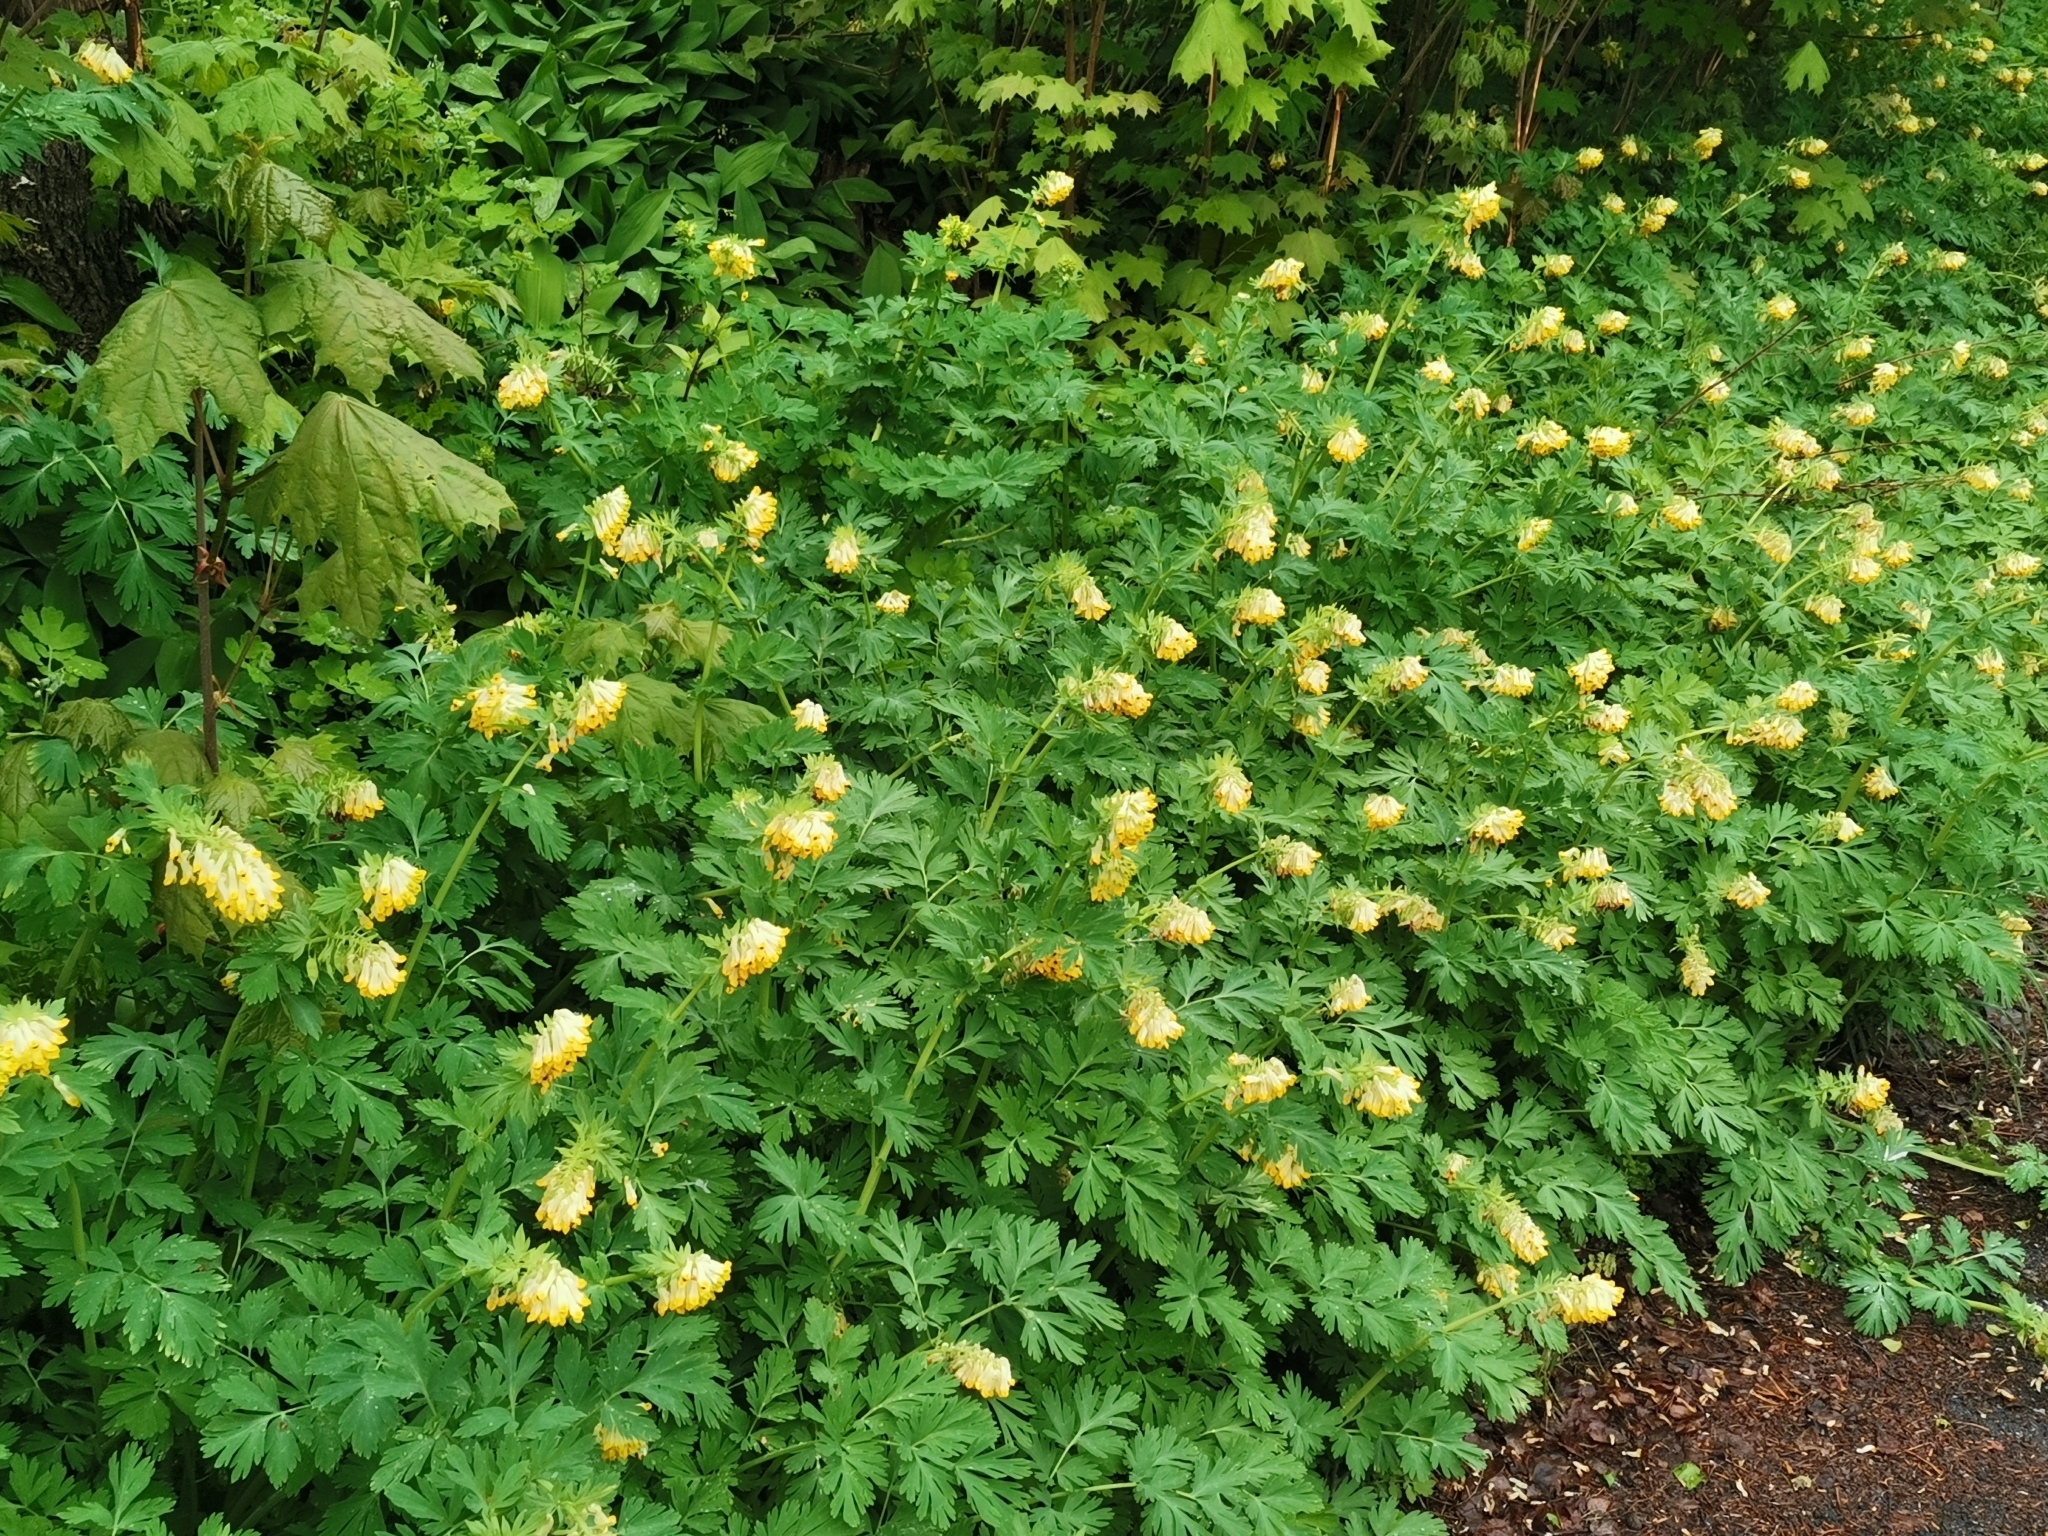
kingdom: Plantae
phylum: Tracheophyta
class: Magnoliopsida
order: Ranunculales
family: Papaveraceae
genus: Corydalis
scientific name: Corydalis nobilis
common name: Siberian corydalis
